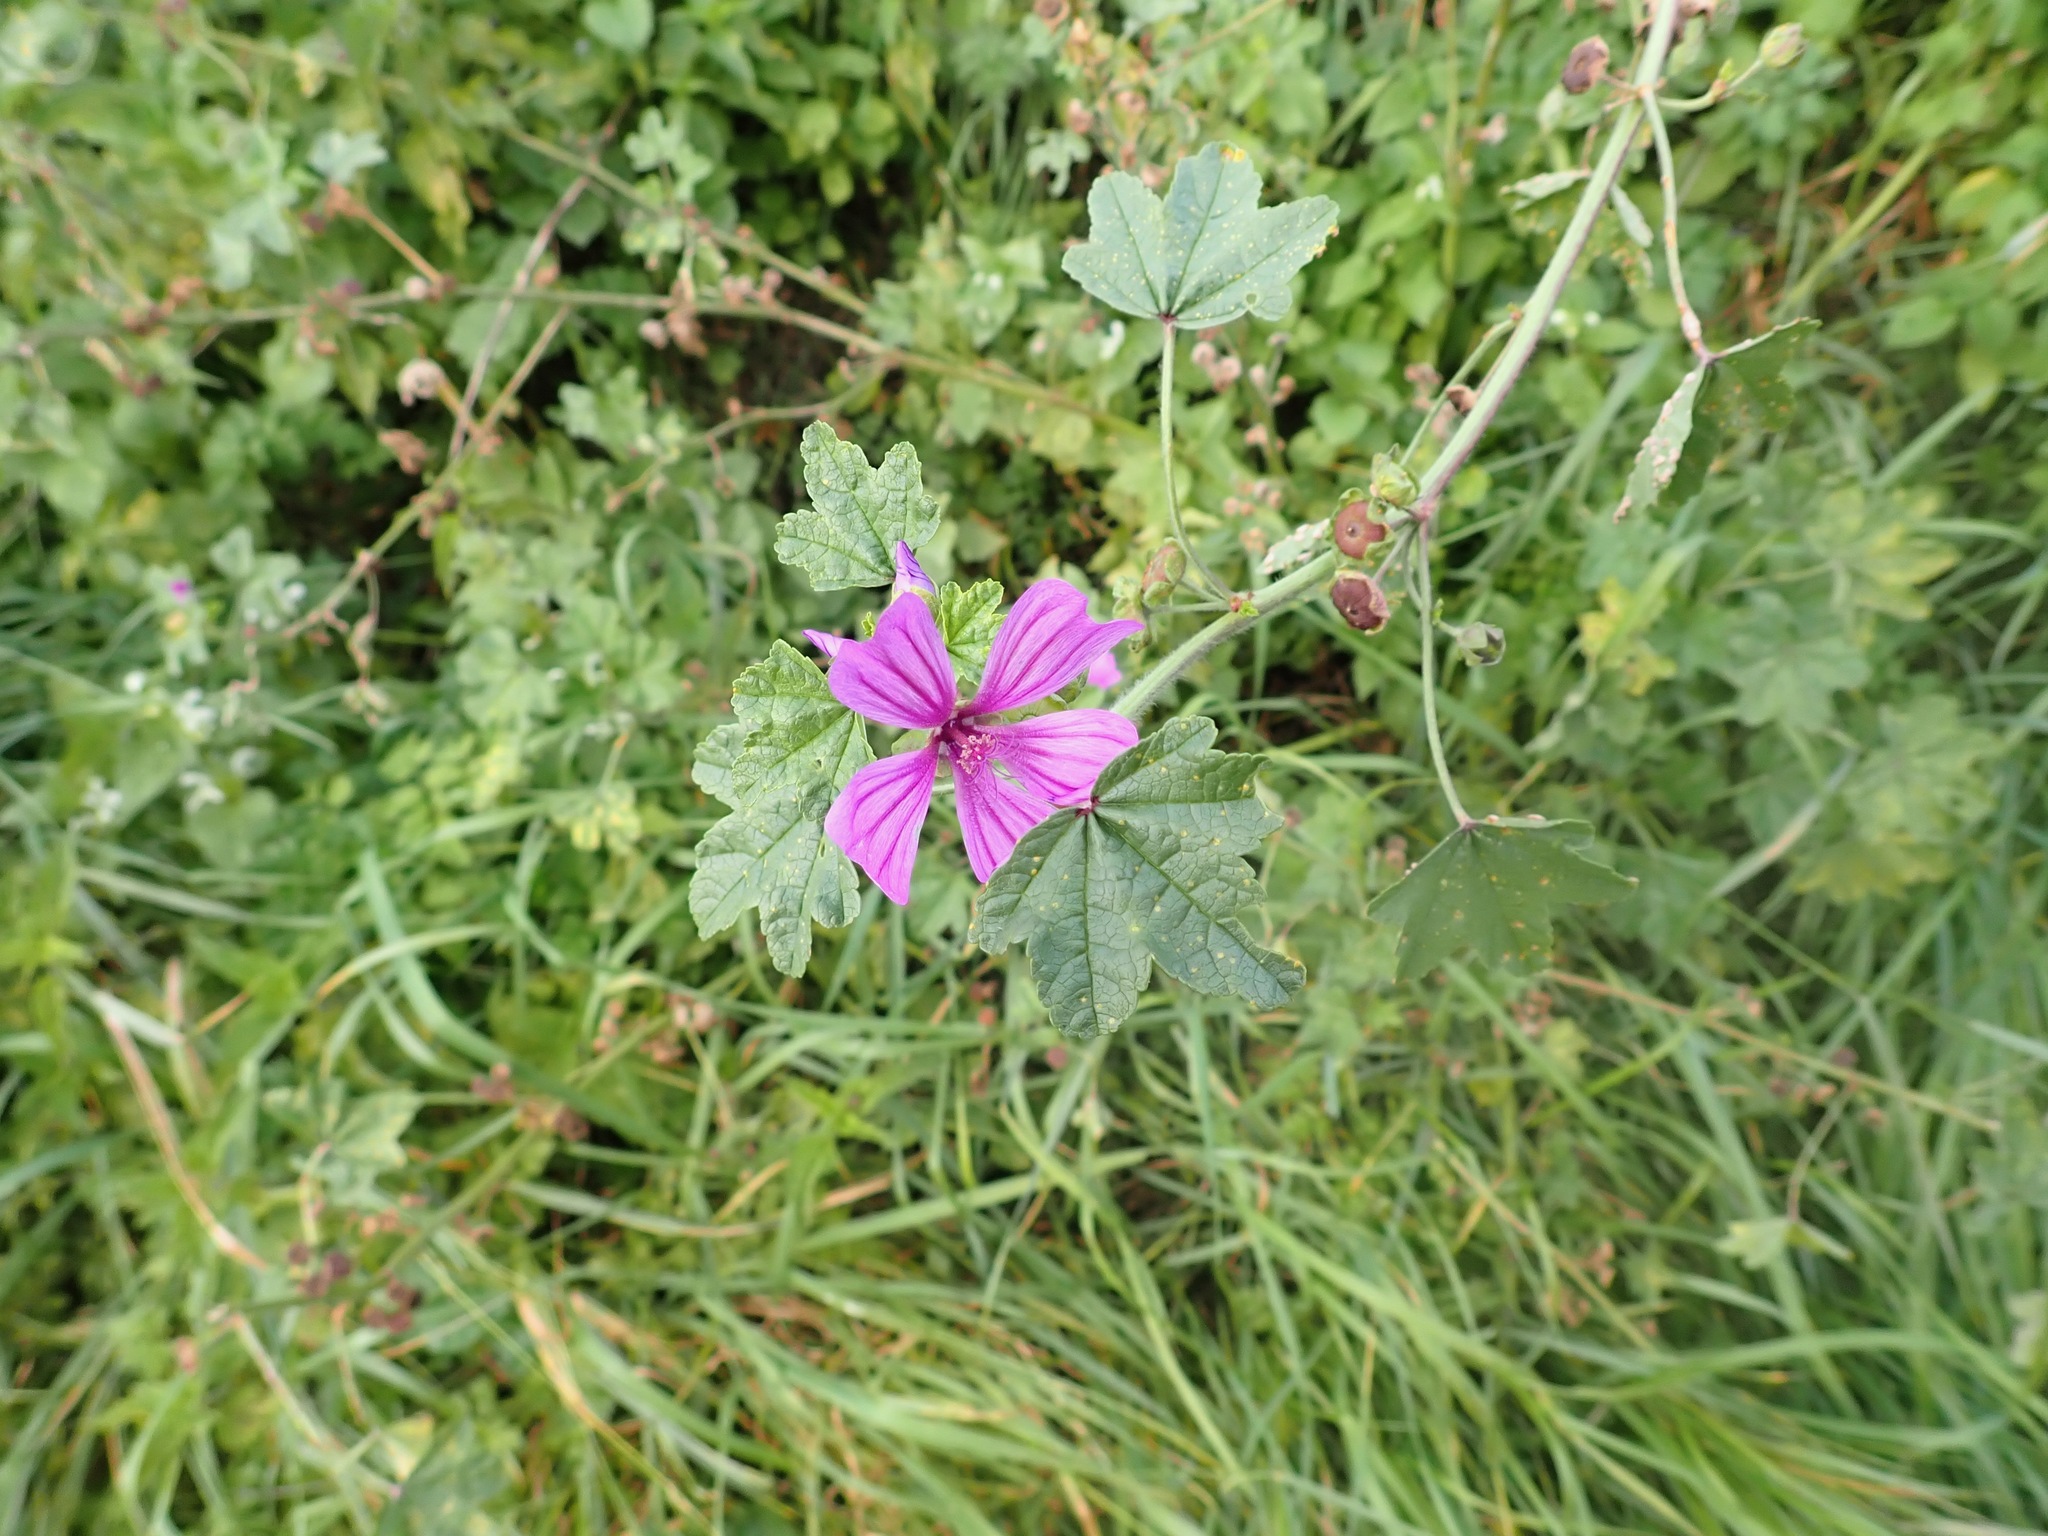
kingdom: Plantae
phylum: Tracheophyta
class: Magnoliopsida
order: Malvales
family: Malvaceae
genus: Malva
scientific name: Malva sylvestris
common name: Common mallow
